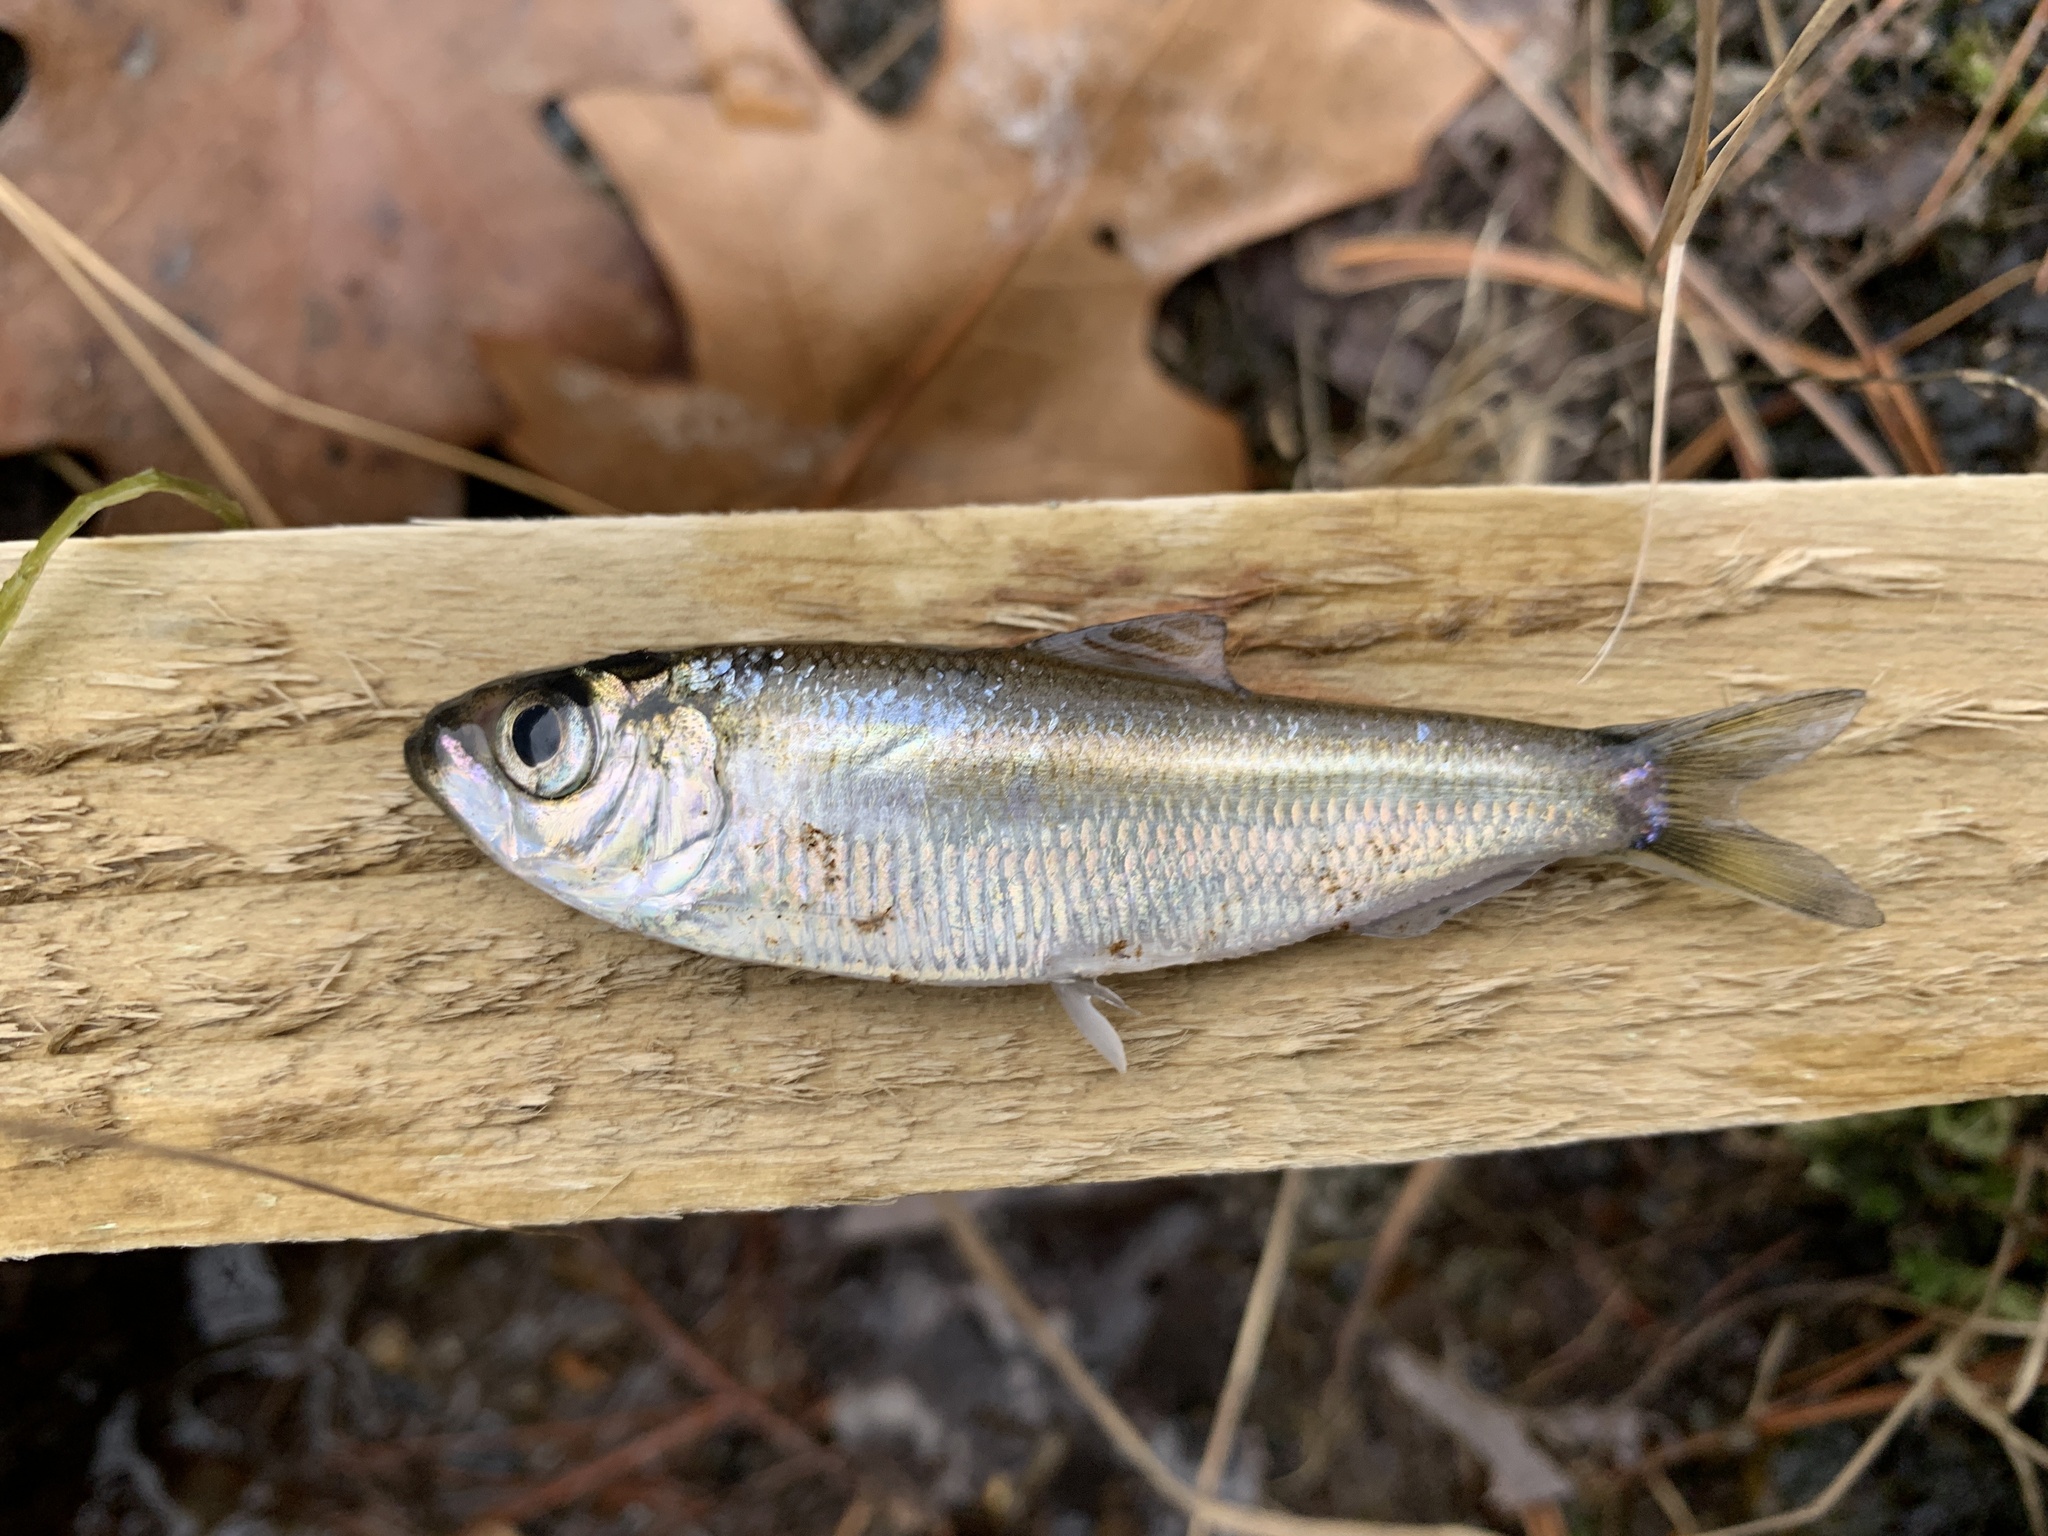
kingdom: Animalia
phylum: Chordata
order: Clupeiformes
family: Clupeidae
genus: Alosa
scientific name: Alosa pseudoharengus
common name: Alewife
